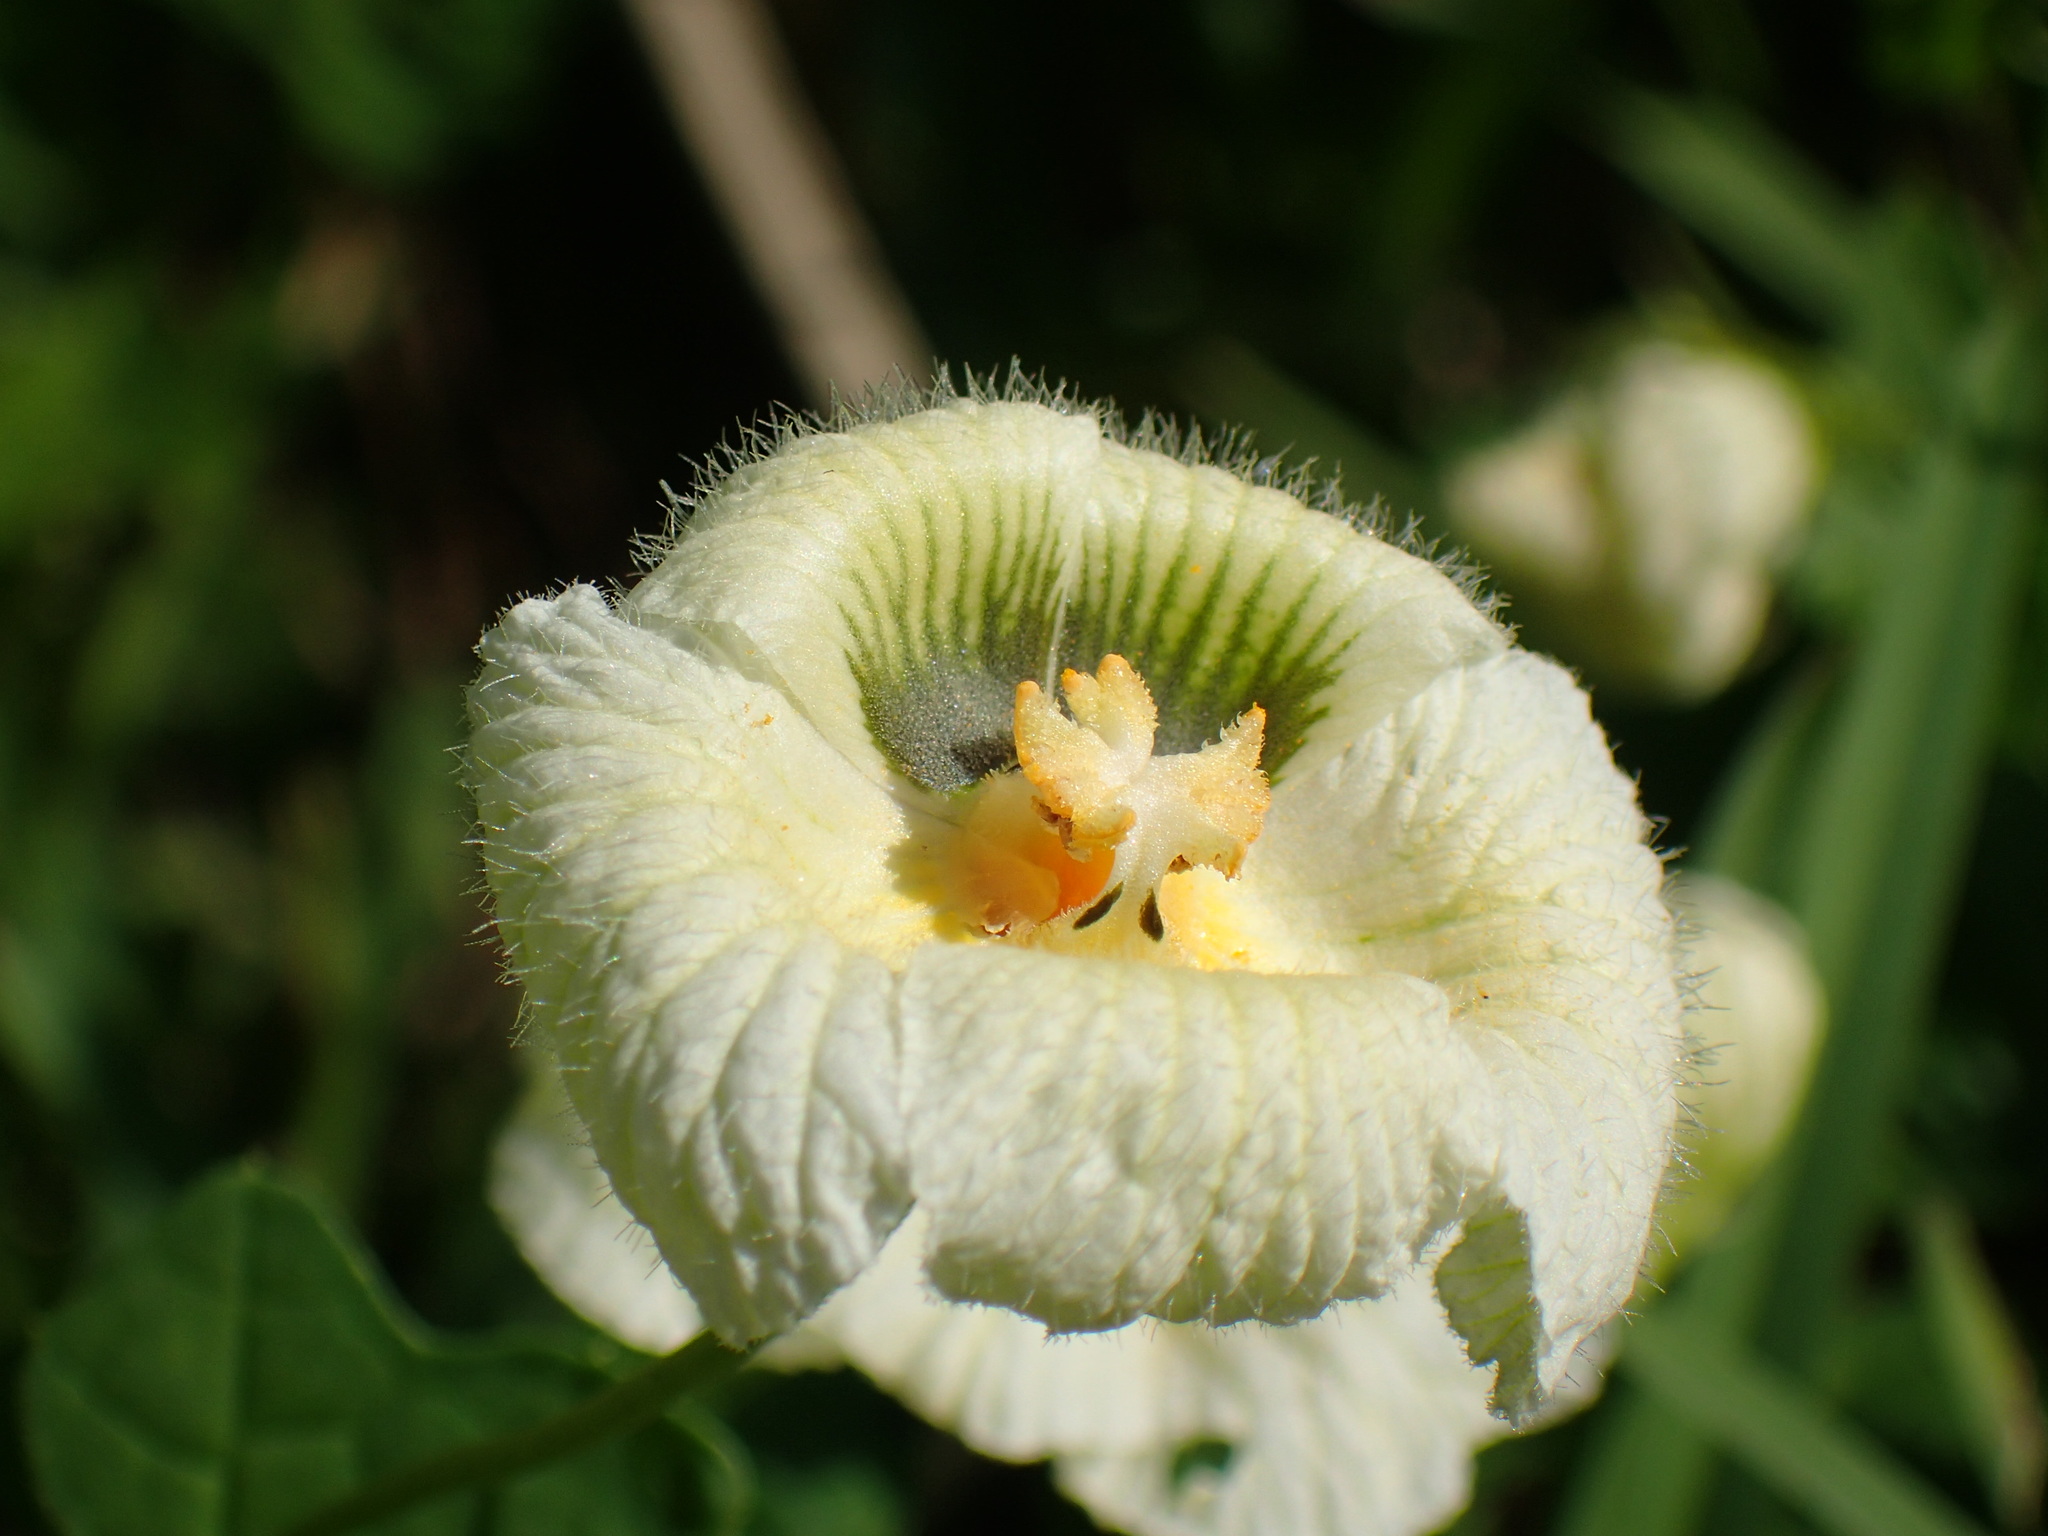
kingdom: Plantae
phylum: Tracheophyta
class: Magnoliopsida
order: Cucurbitales
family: Cucurbitaceae
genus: Momordica
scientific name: Momordica balsamina
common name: Southern balsampear
